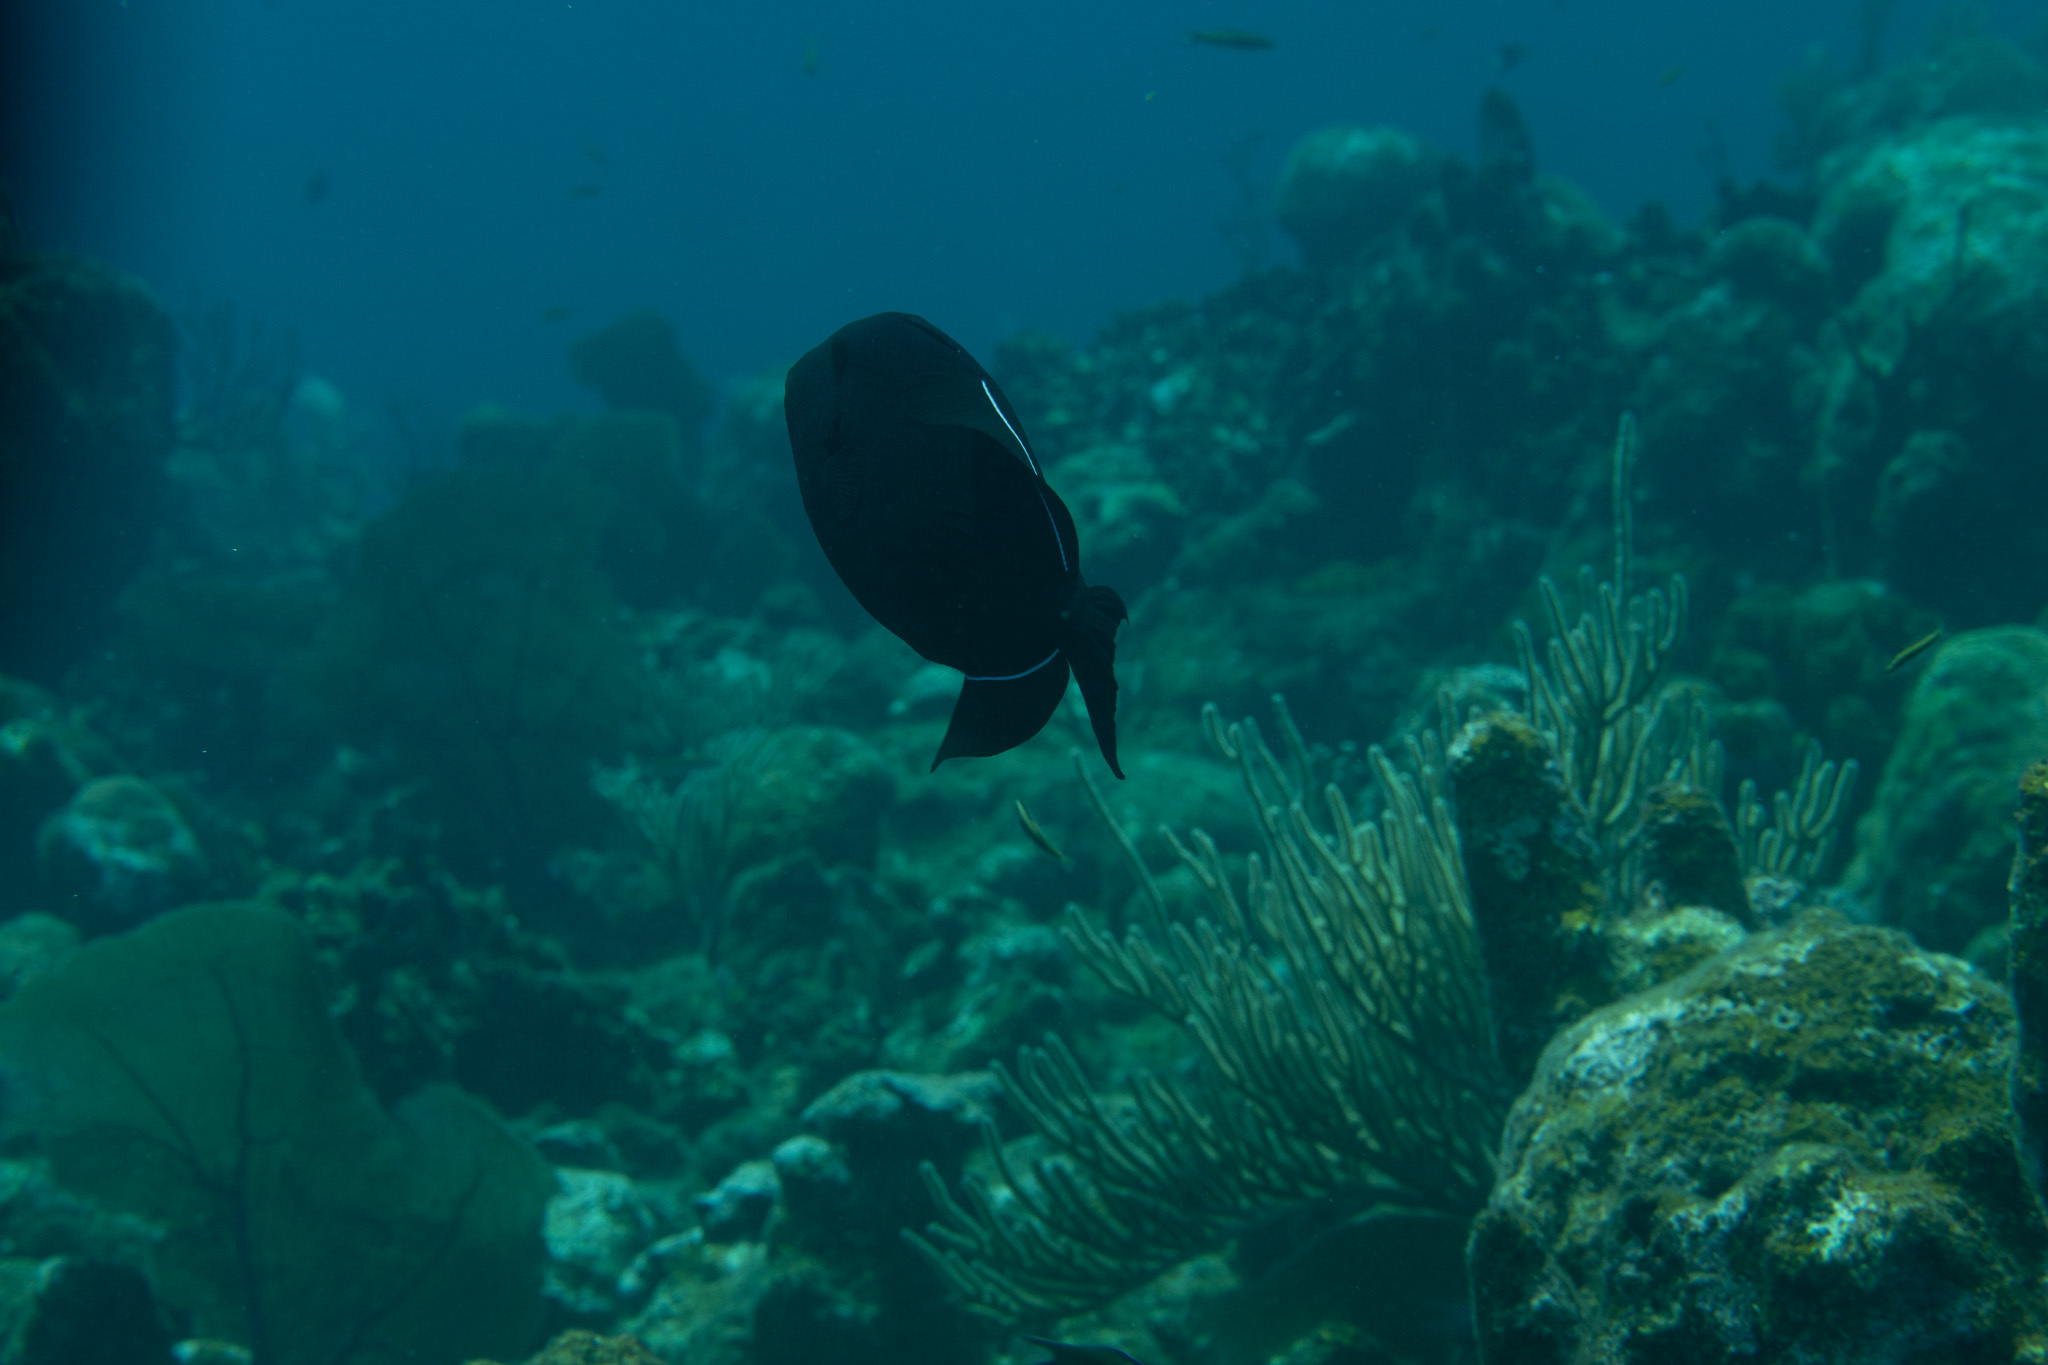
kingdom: Animalia
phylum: Chordata
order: Tetraodontiformes
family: Balistidae
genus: Melichthys
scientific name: Melichthys niger
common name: Black durgon
